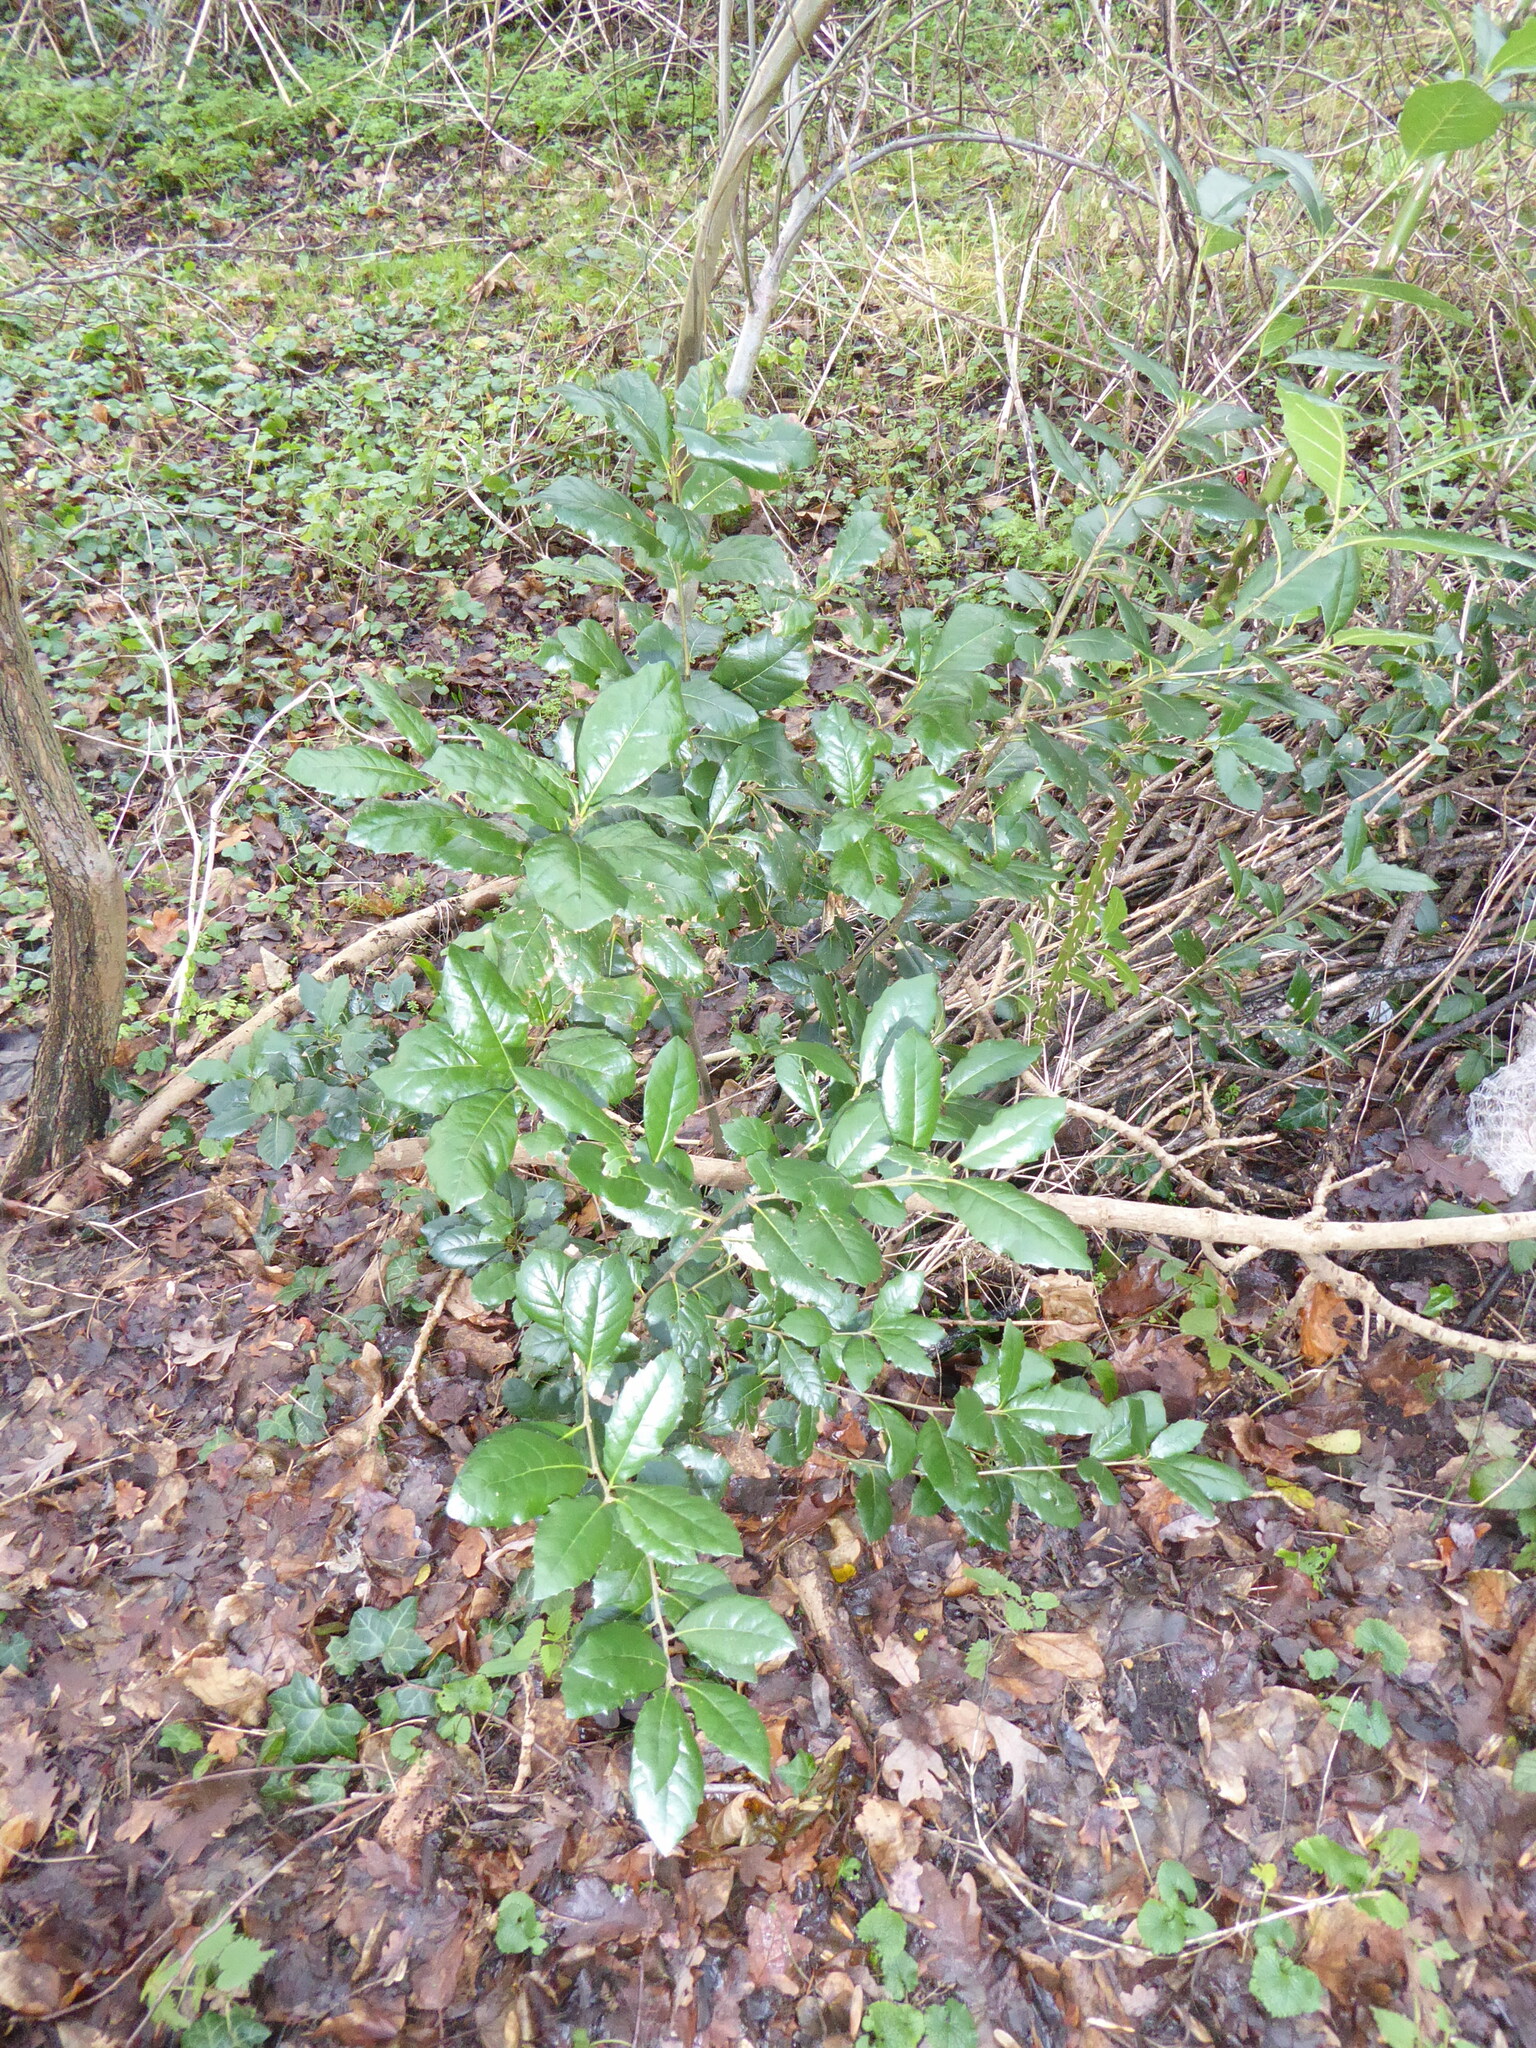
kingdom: Plantae
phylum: Tracheophyta
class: Magnoliopsida
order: Fagales
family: Fagaceae
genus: Quercus
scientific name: Quercus ilex
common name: Evergreen oak
